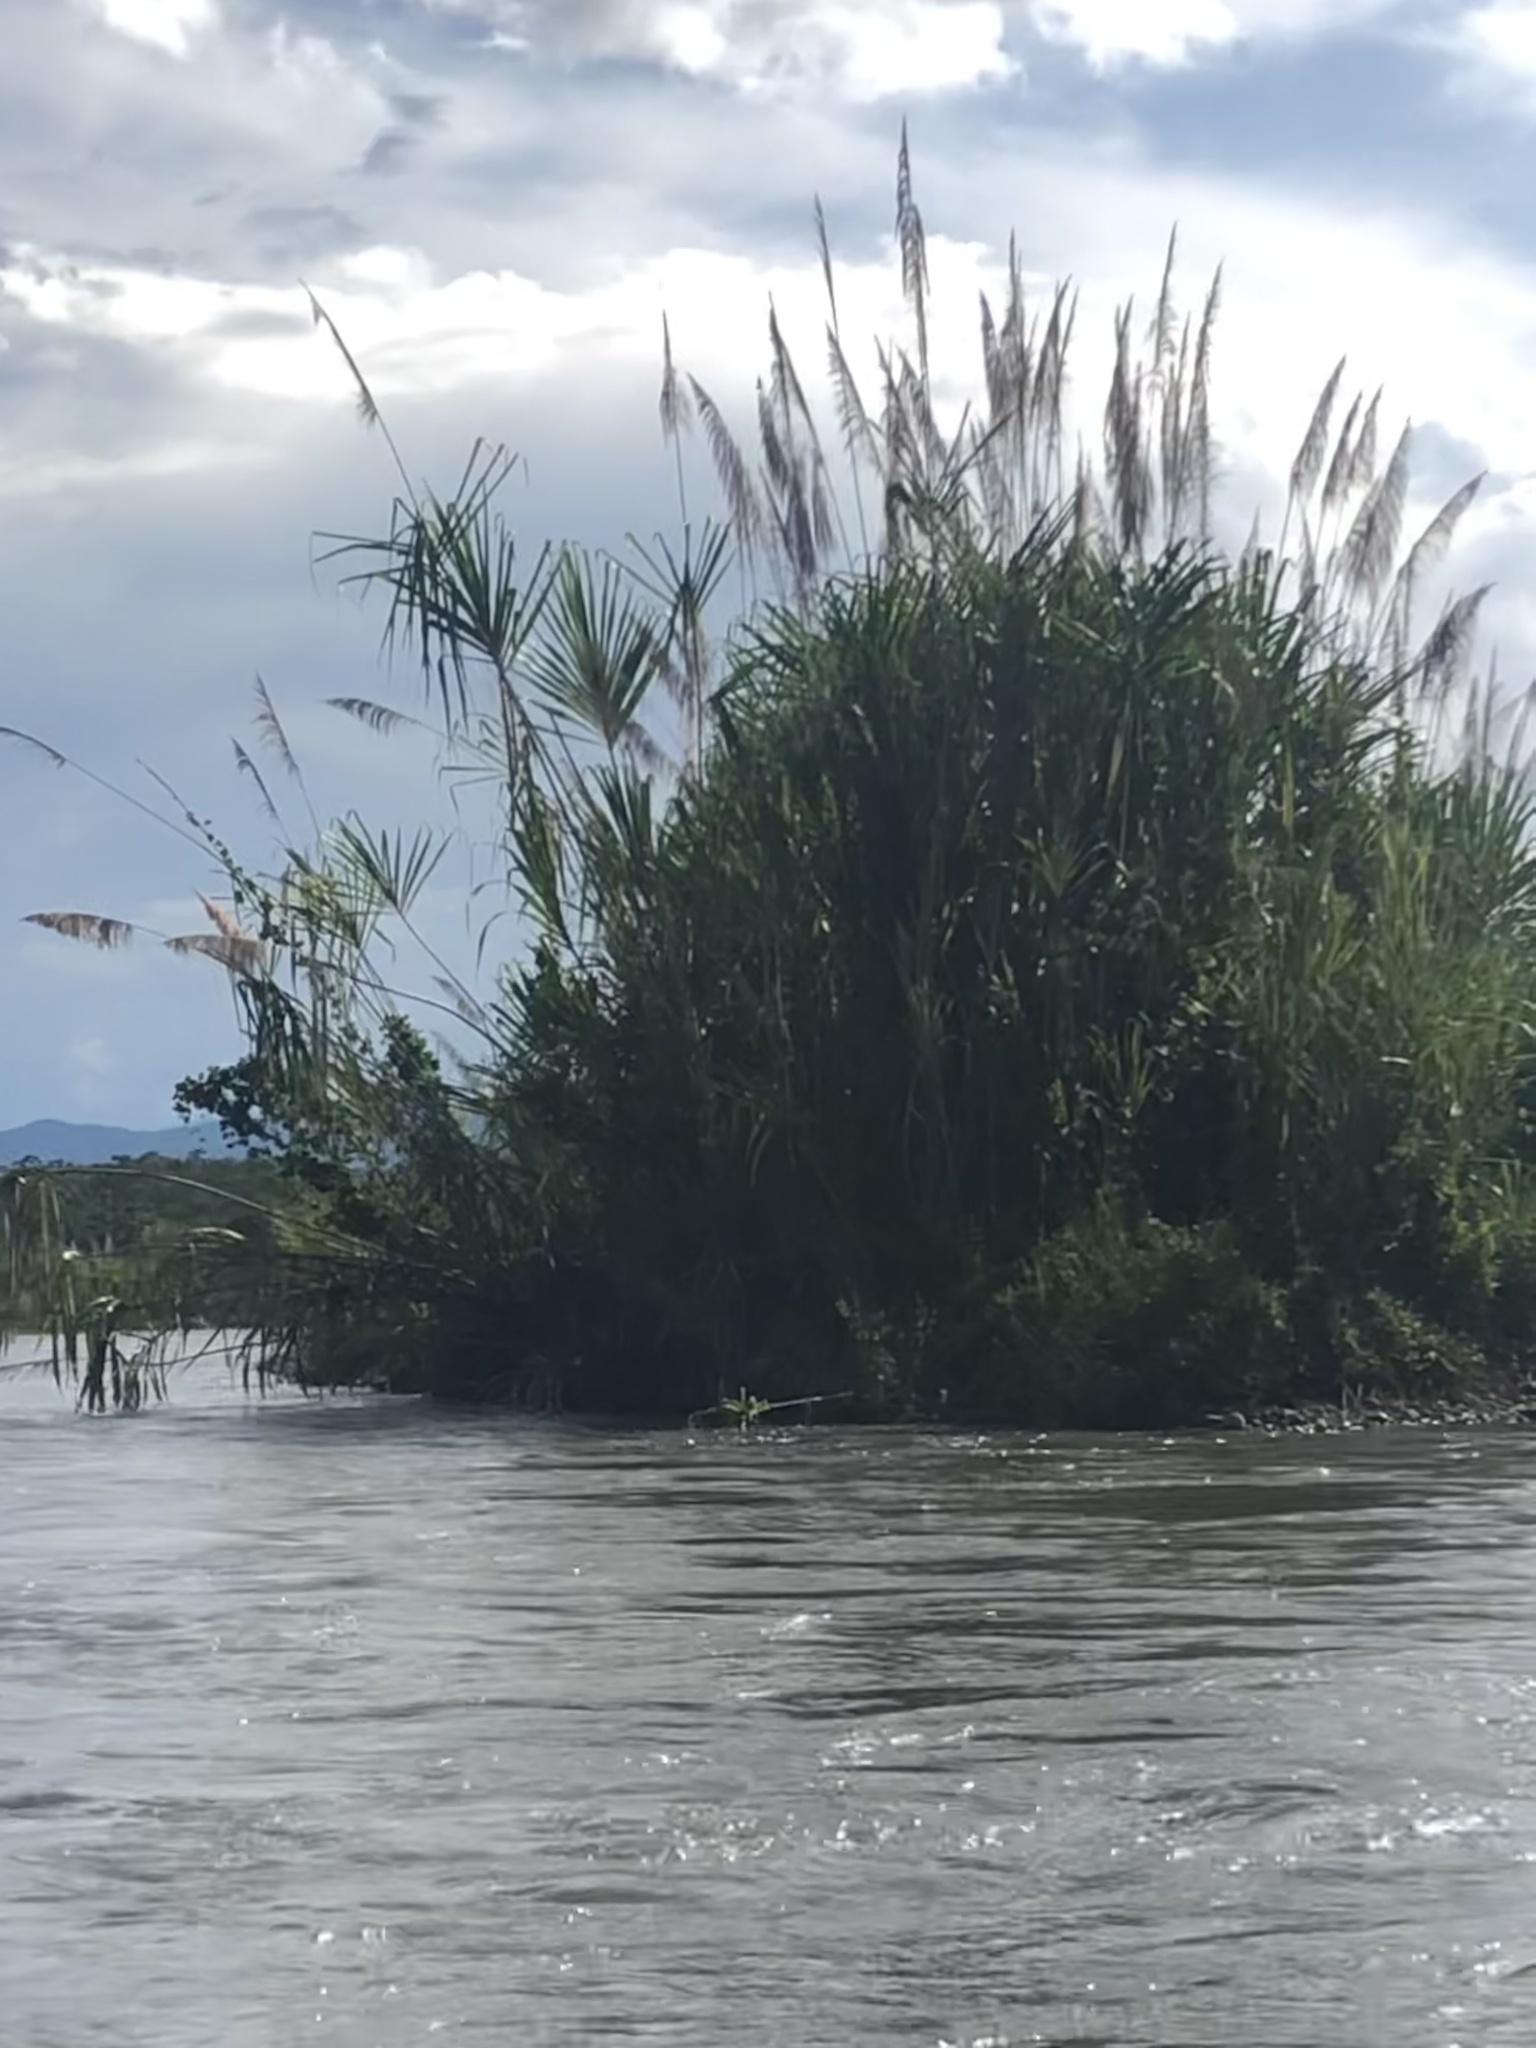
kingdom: Plantae
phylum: Tracheophyta
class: Liliopsida
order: Poales
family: Poaceae
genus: Gynerium
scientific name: Gynerium sagittatum
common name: Wild cane
